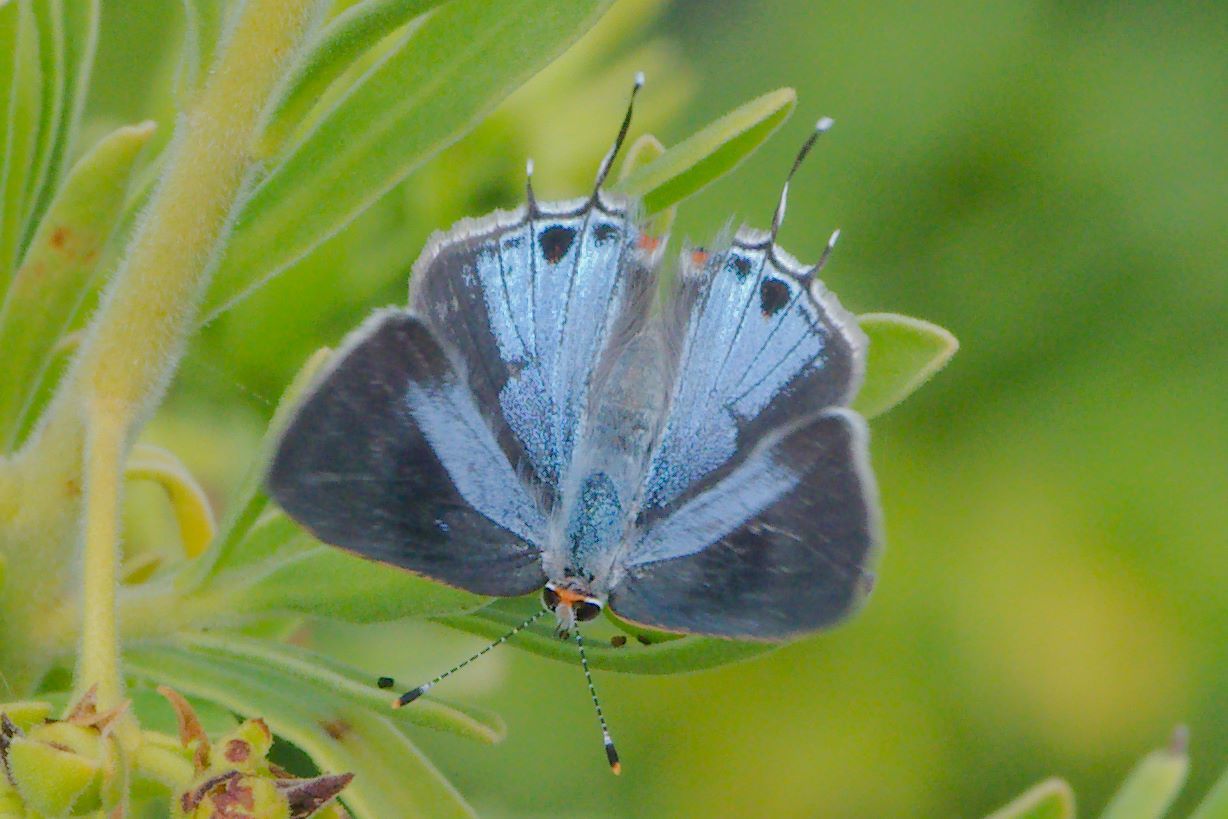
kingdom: Animalia
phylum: Arthropoda
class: Insecta
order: Lepidoptera
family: Lycaenidae
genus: Thecla
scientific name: Thecla martialis
